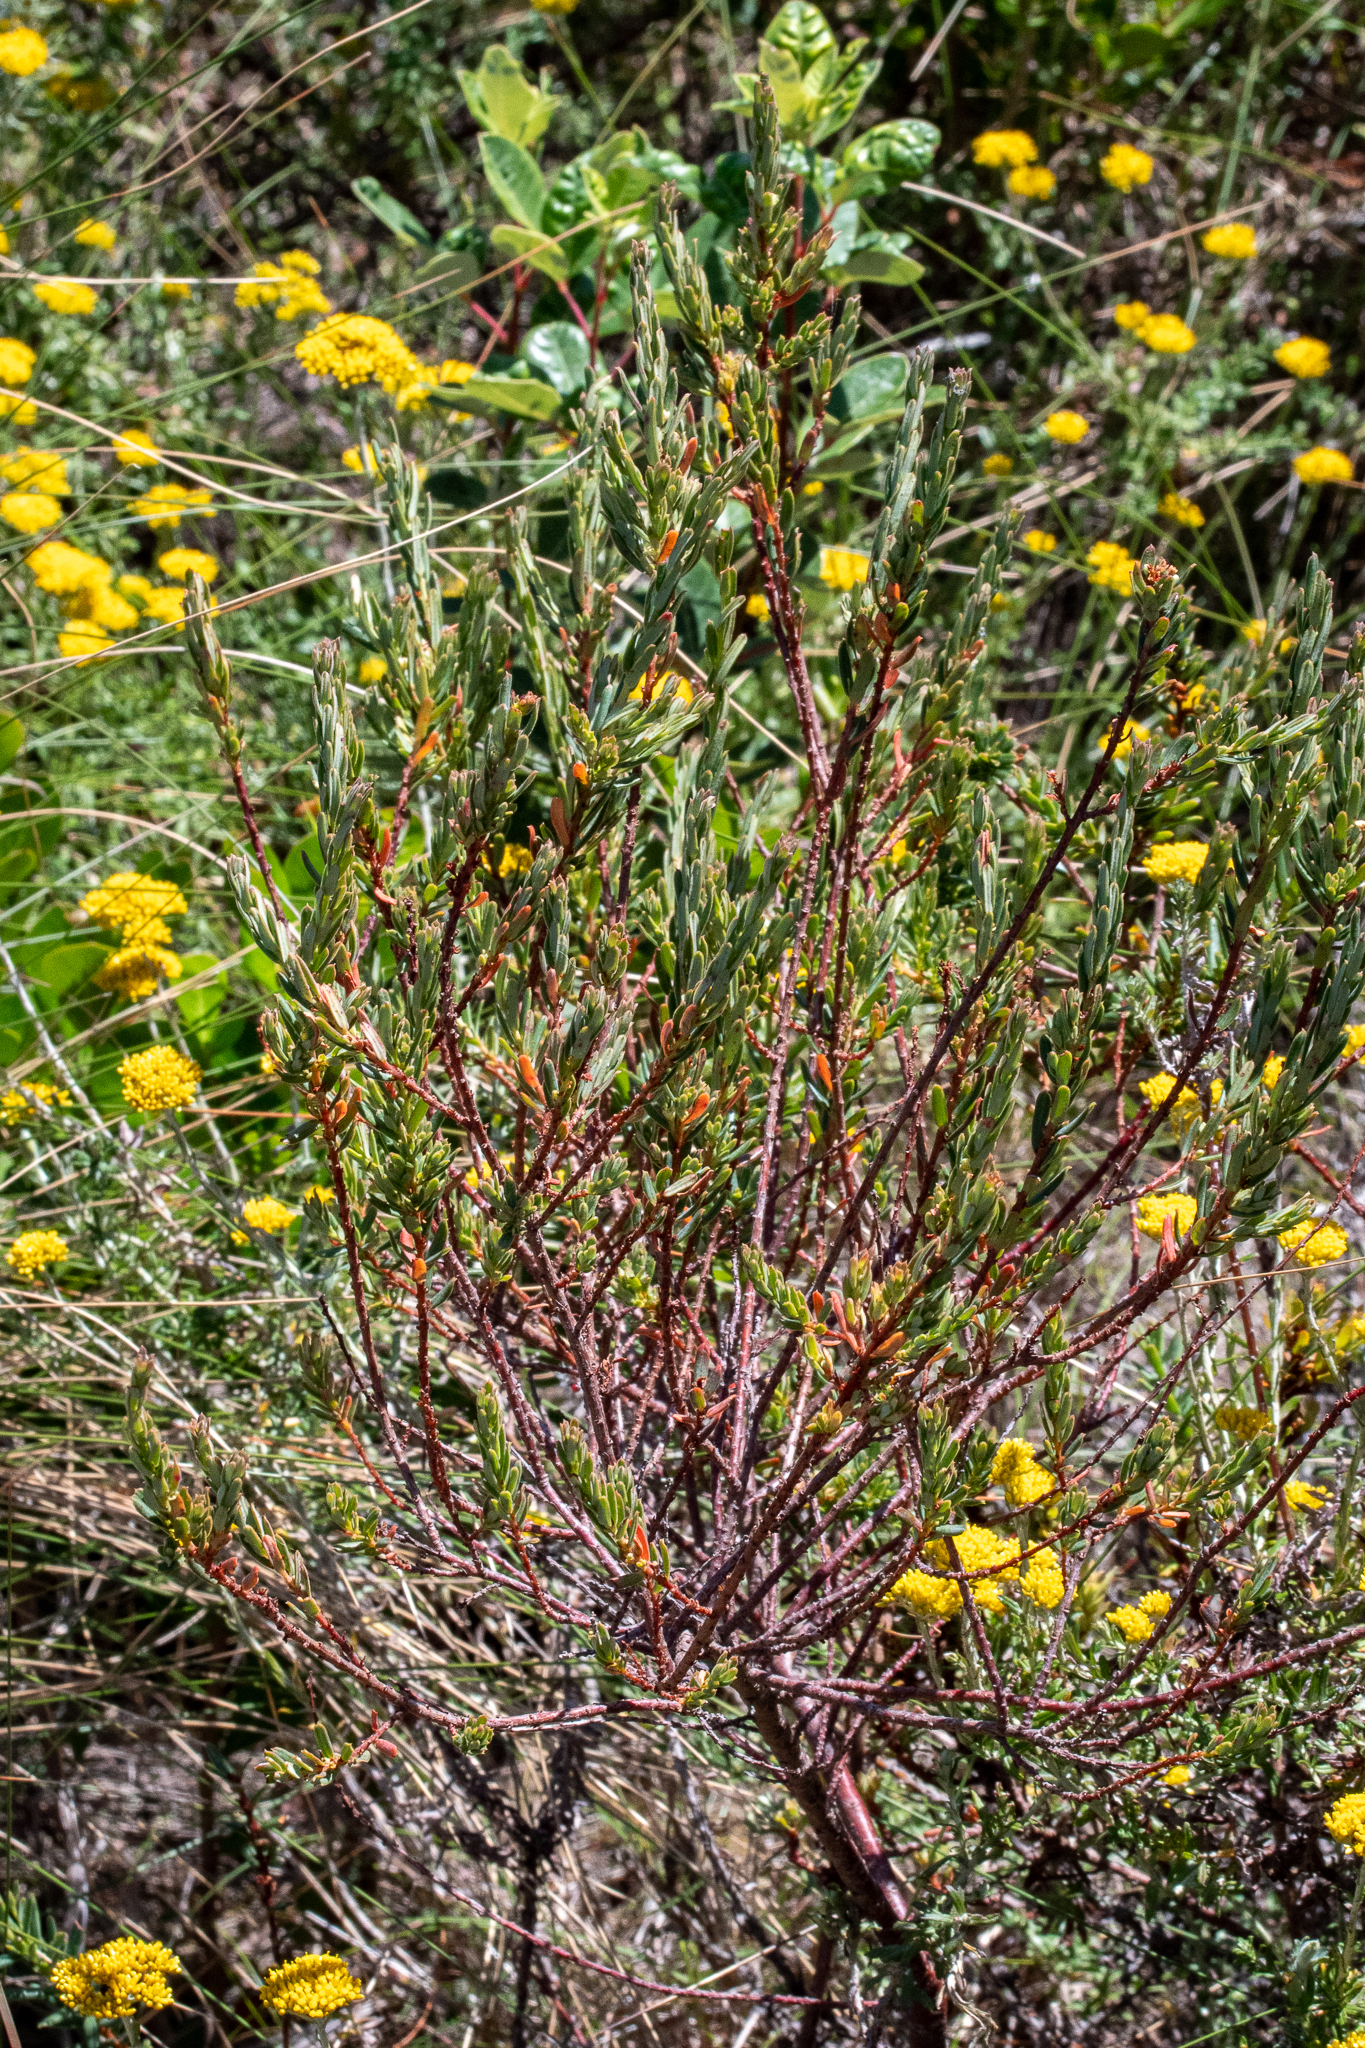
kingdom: Plantae
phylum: Tracheophyta
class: Magnoliopsida
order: Malpighiales
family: Peraceae
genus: Clutia
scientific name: Clutia alaternoides
